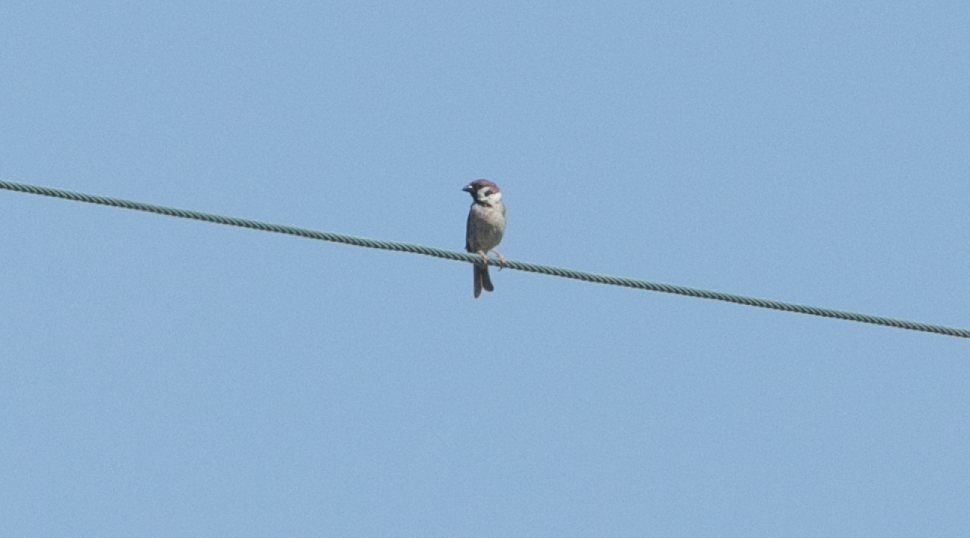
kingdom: Animalia
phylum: Chordata
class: Aves
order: Passeriformes
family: Passeridae
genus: Passer
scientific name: Passer montanus
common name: Eurasian tree sparrow
